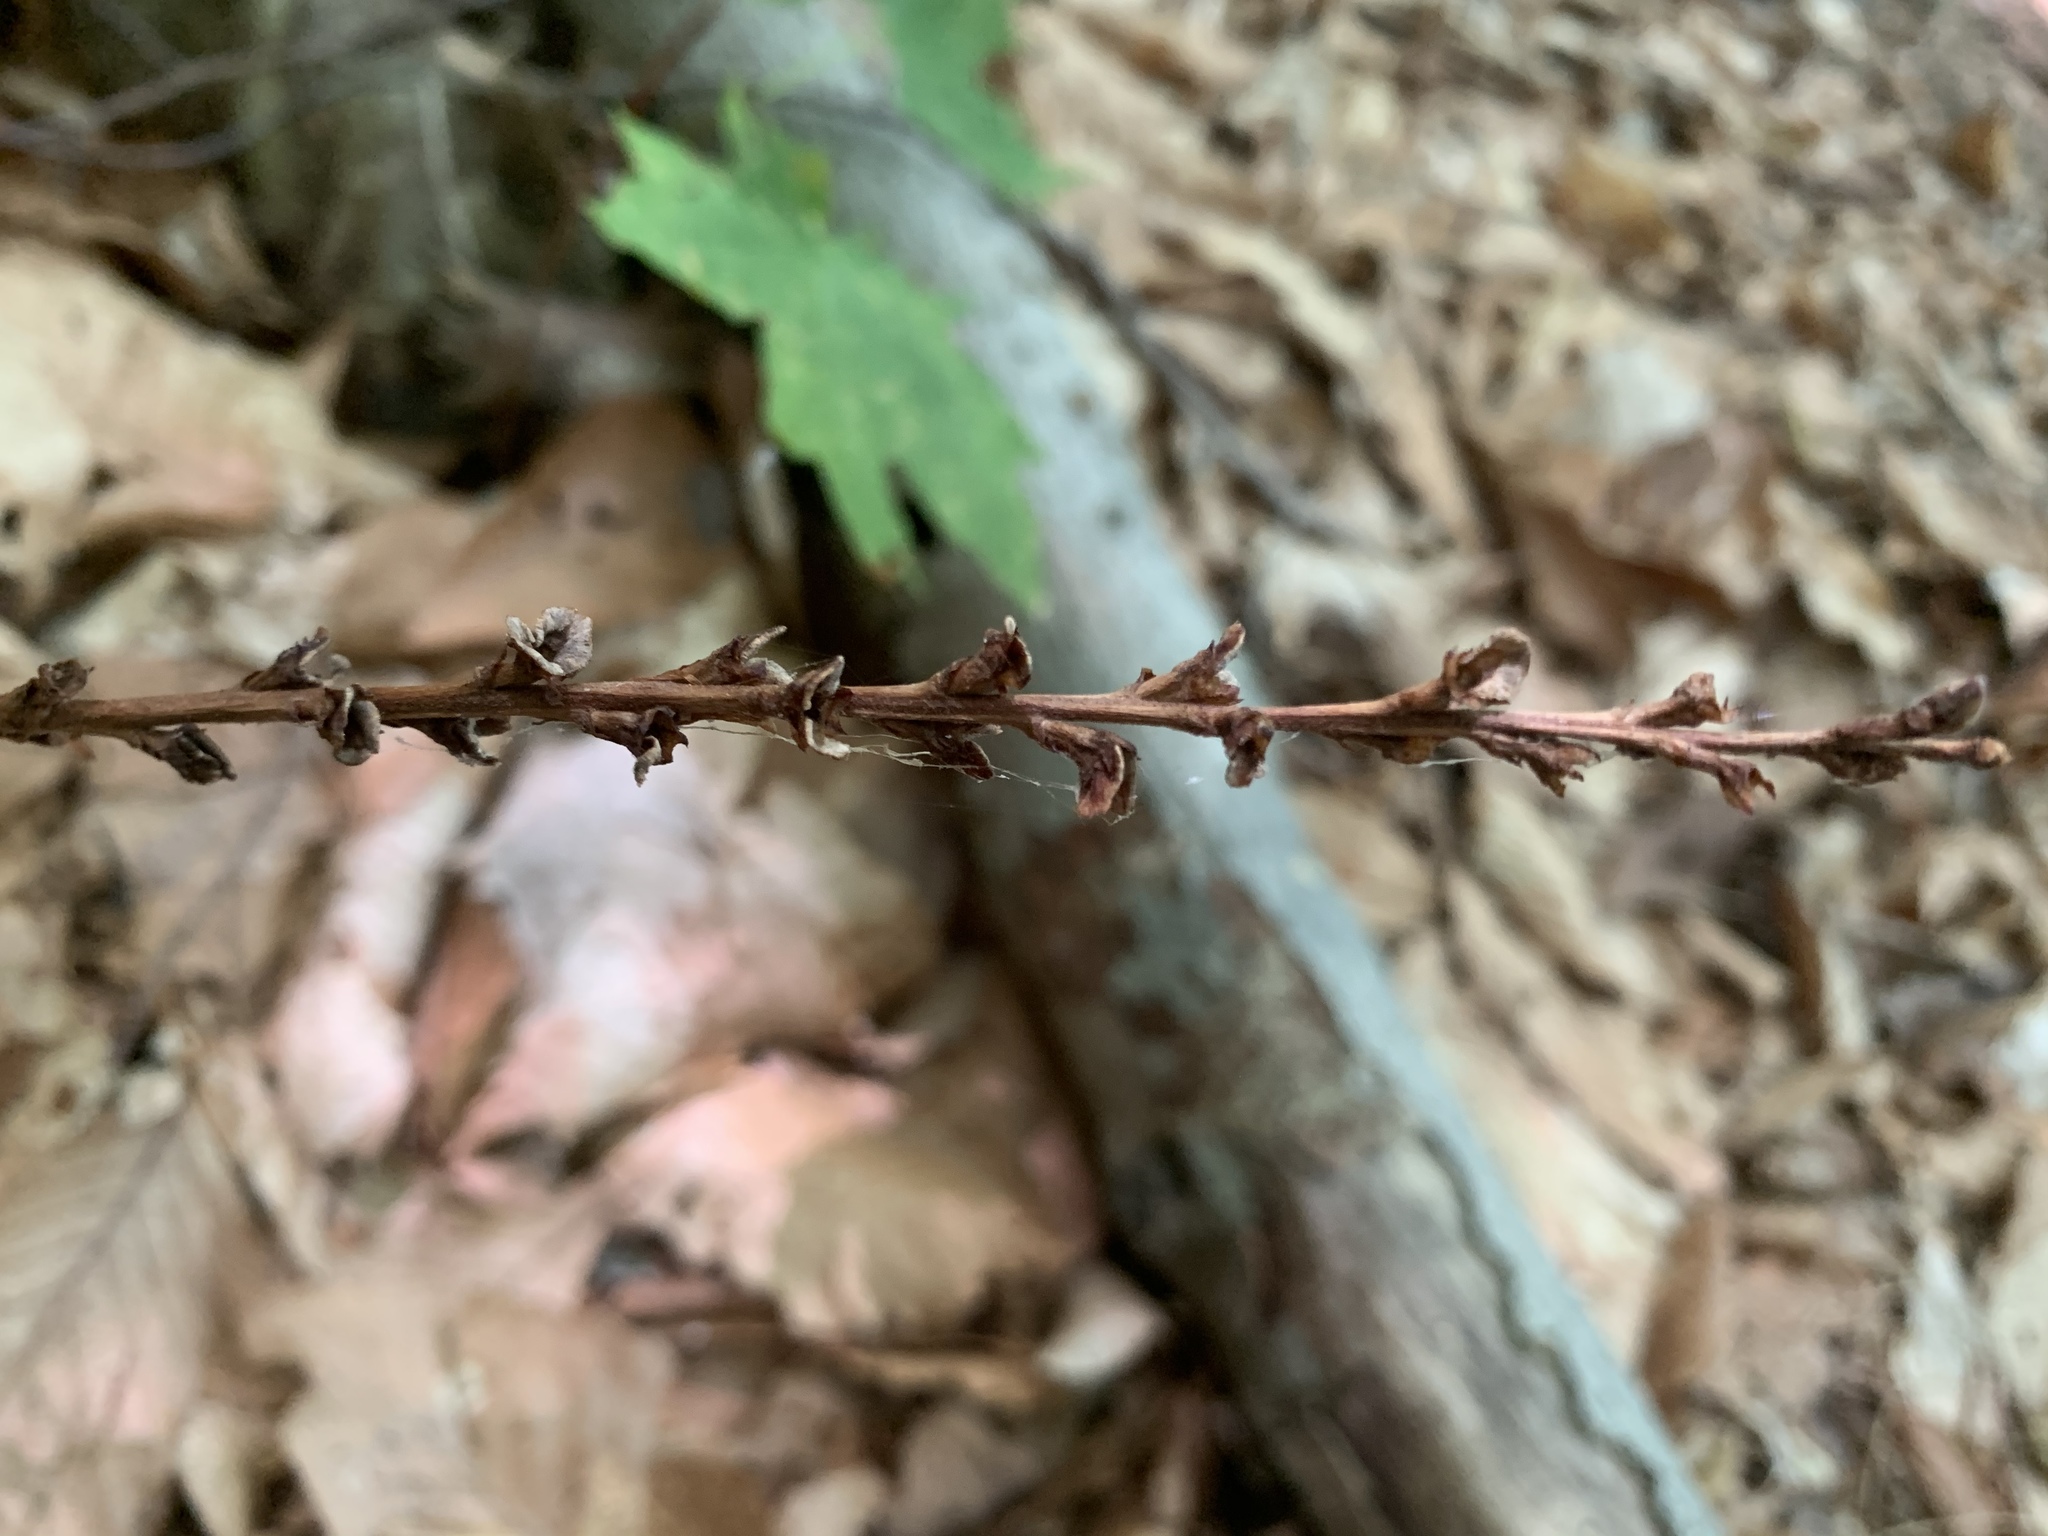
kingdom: Plantae
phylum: Tracheophyta
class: Magnoliopsida
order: Lamiales
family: Orobanchaceae
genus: Epifagus
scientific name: Epifagus virginiana
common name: Beechdrops
